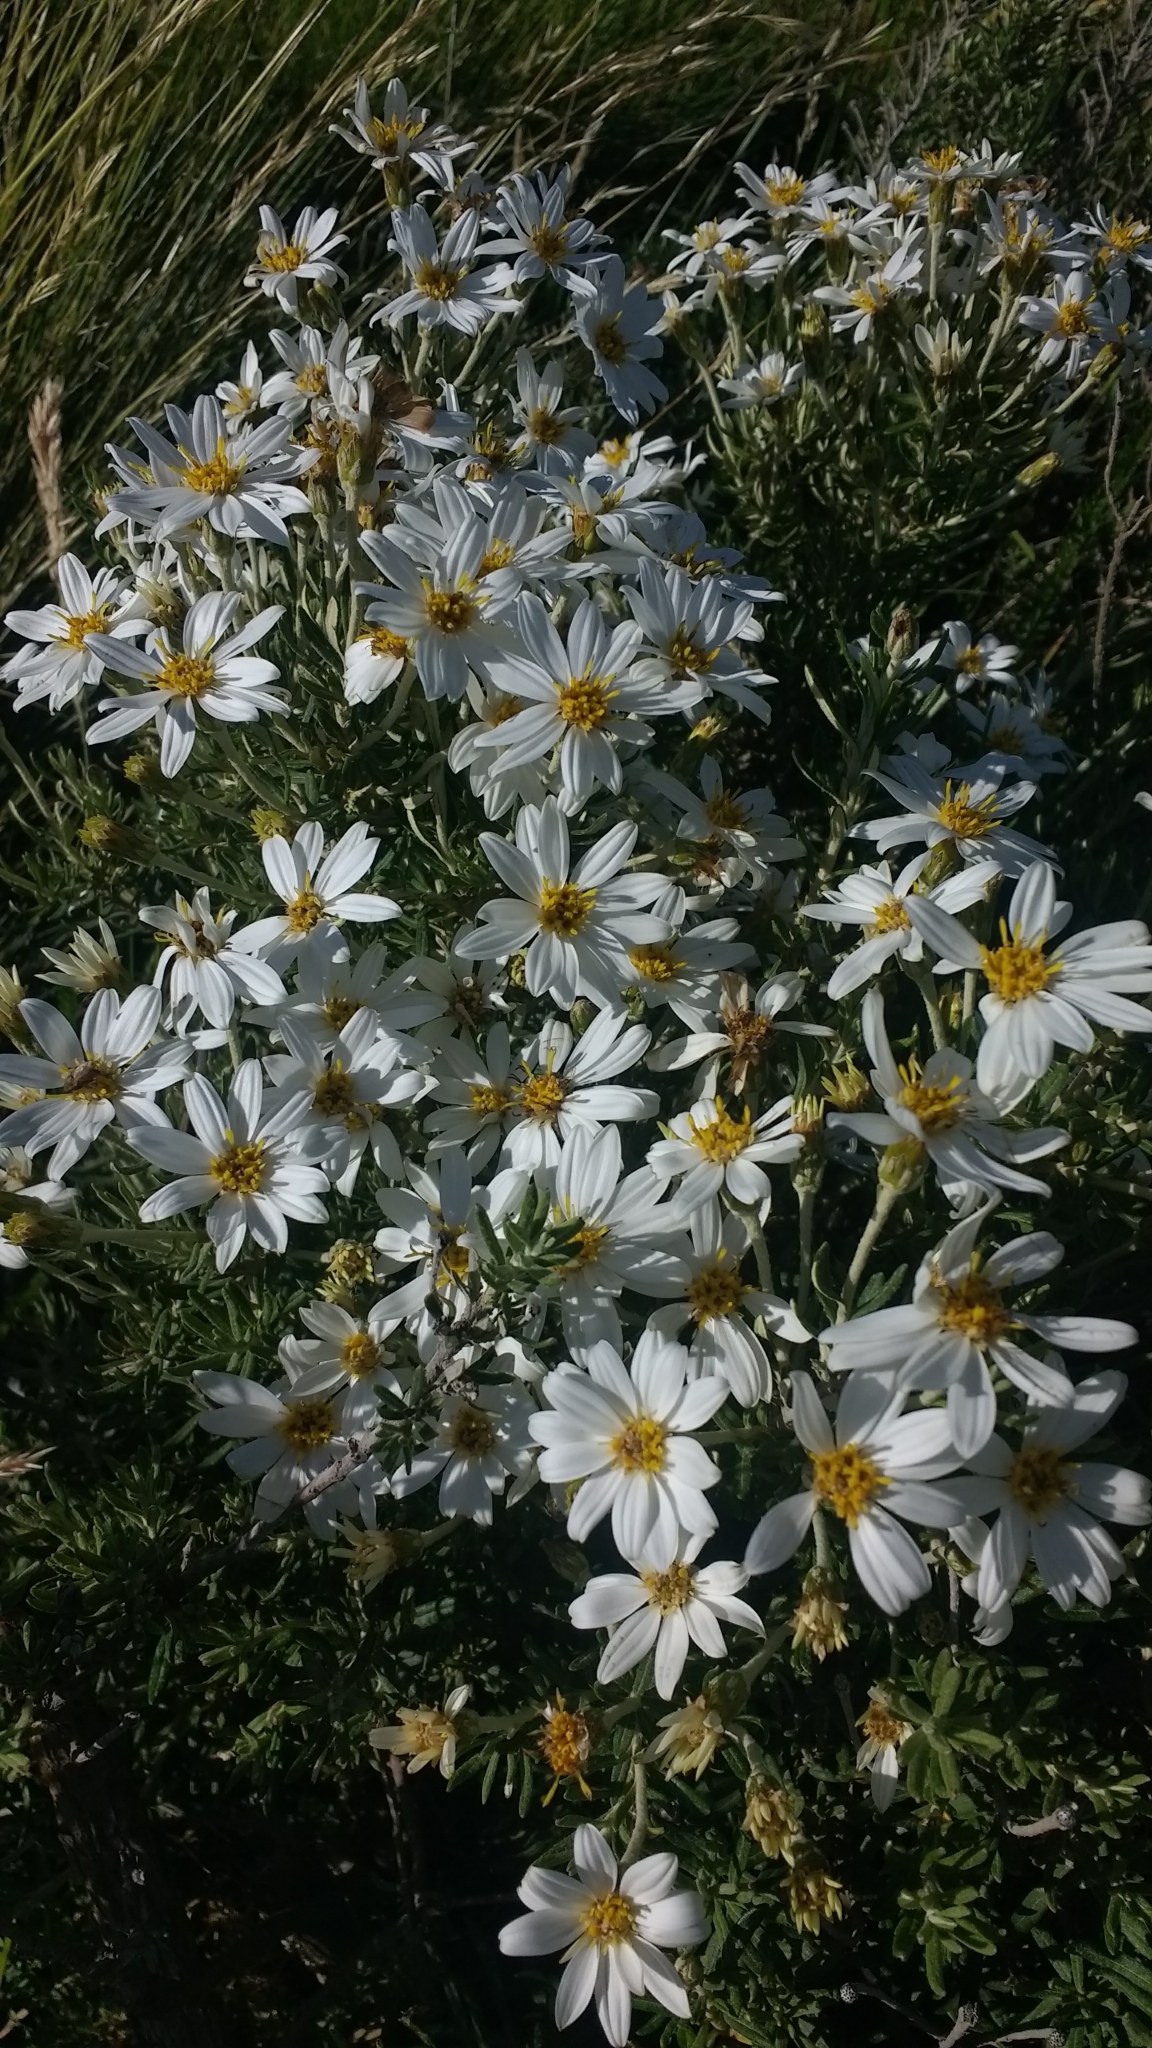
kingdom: Plantae
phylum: Tracheophyta
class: Magnoliopsida
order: Asterales
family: Asteraceae
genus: Chiliotrichum
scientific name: Chiliotrichum diffusum
